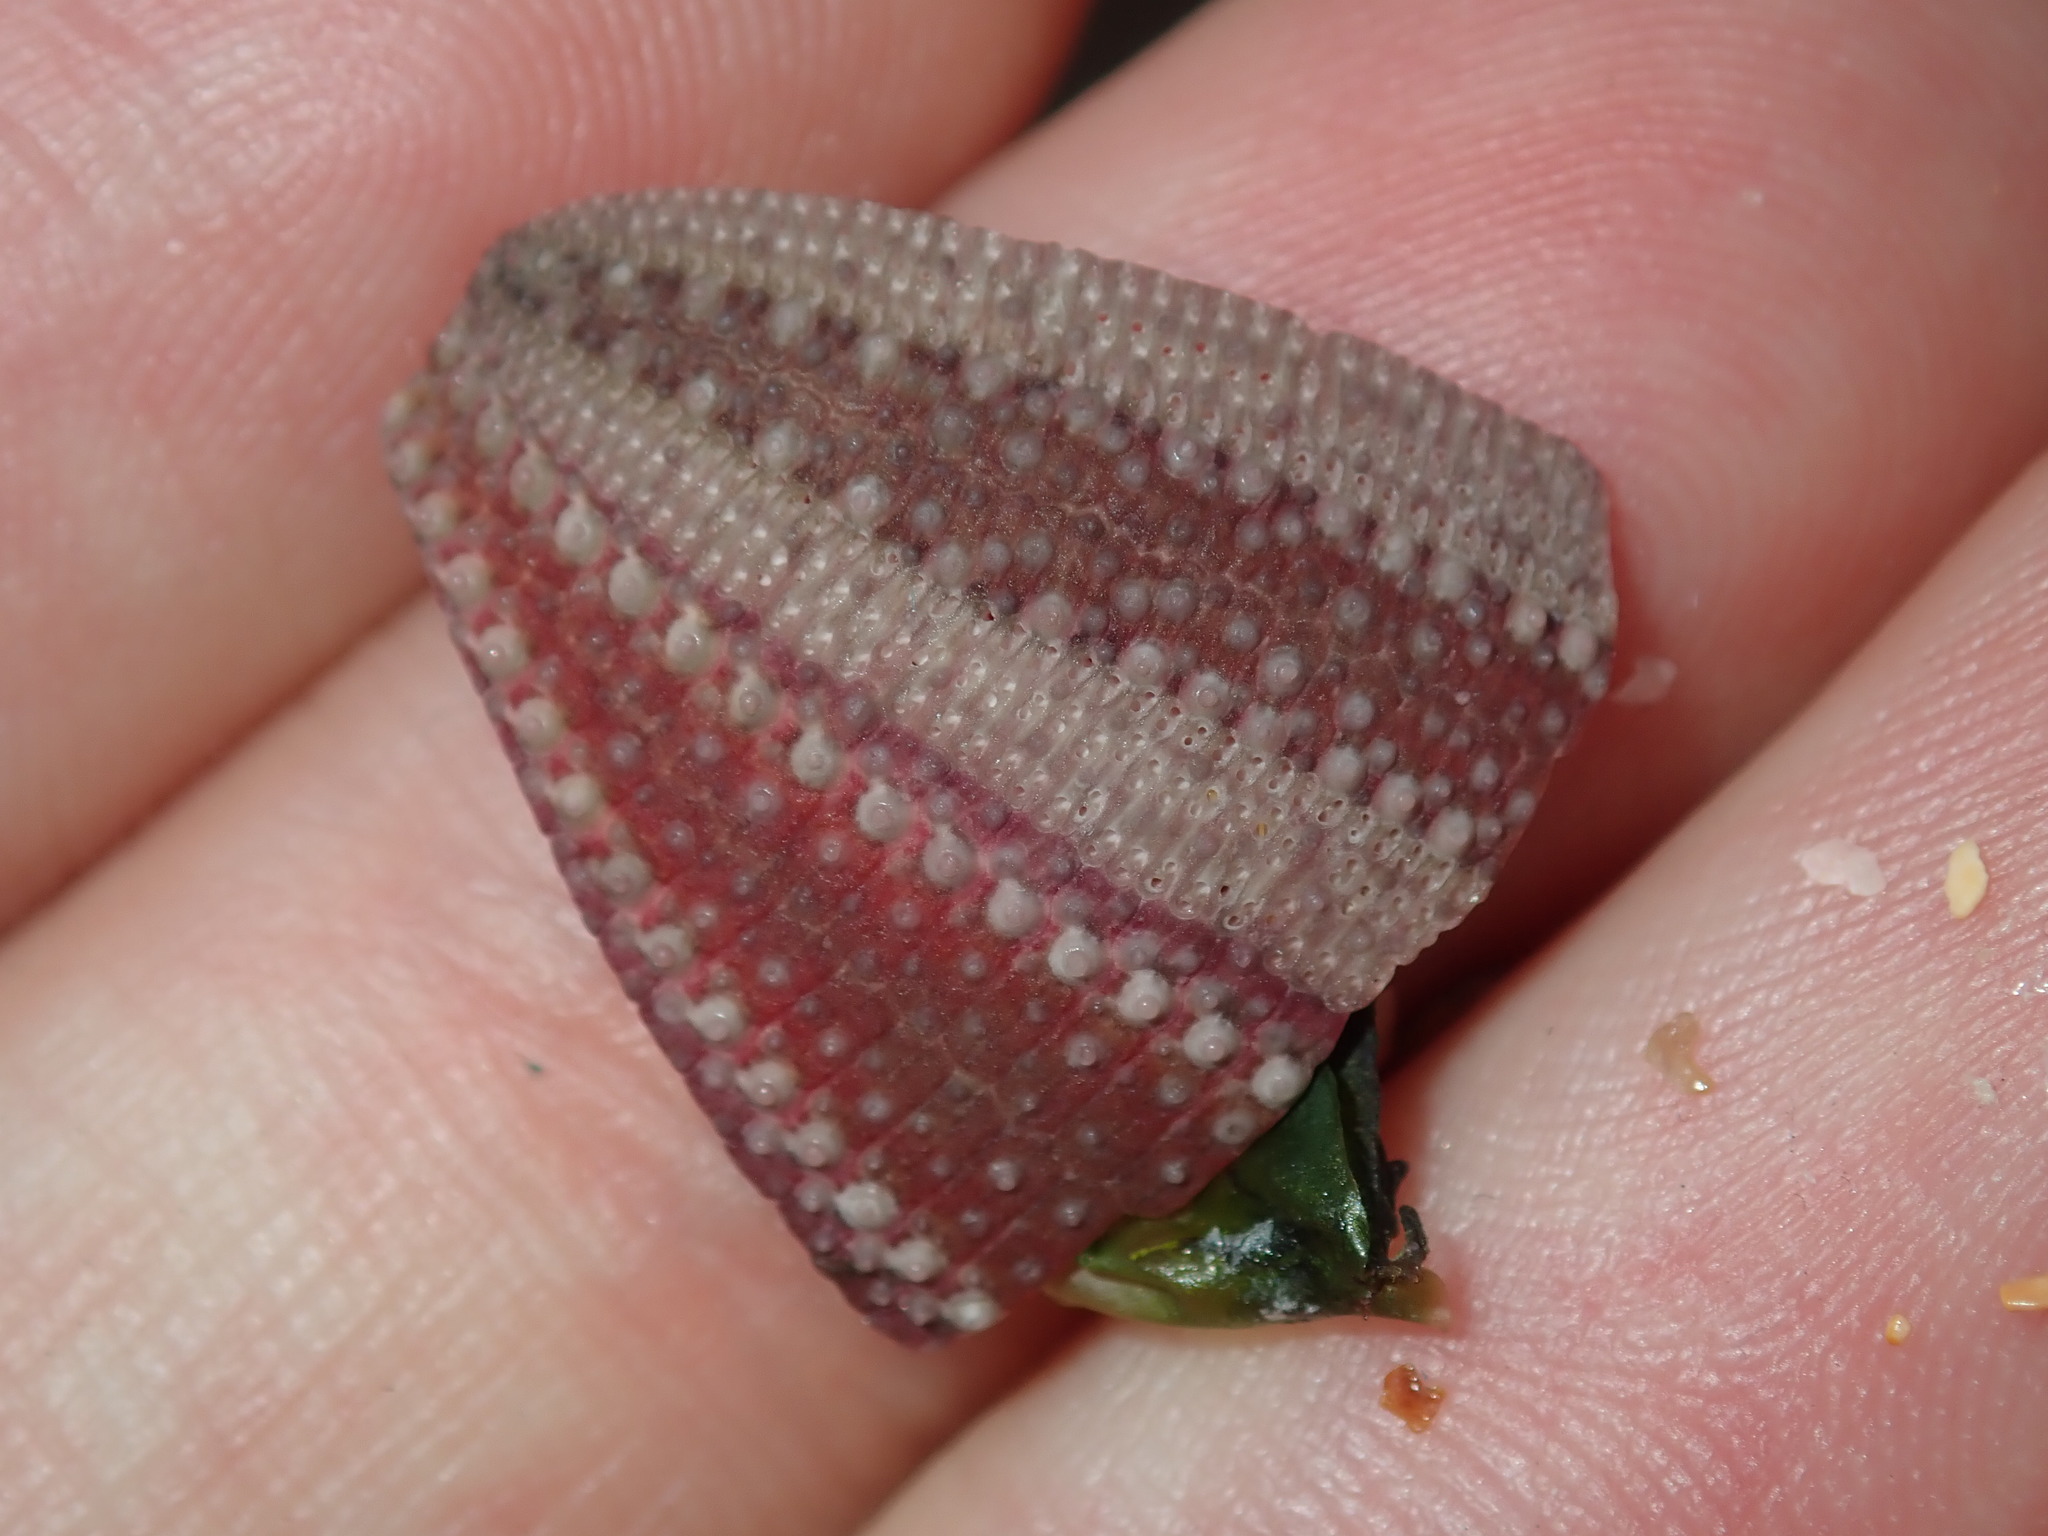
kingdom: Animalia
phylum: Echinodermata
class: Echinoidea
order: Camarodonta
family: Temnopleuridae
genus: Holopneustes
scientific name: Holopneustes inflatus
